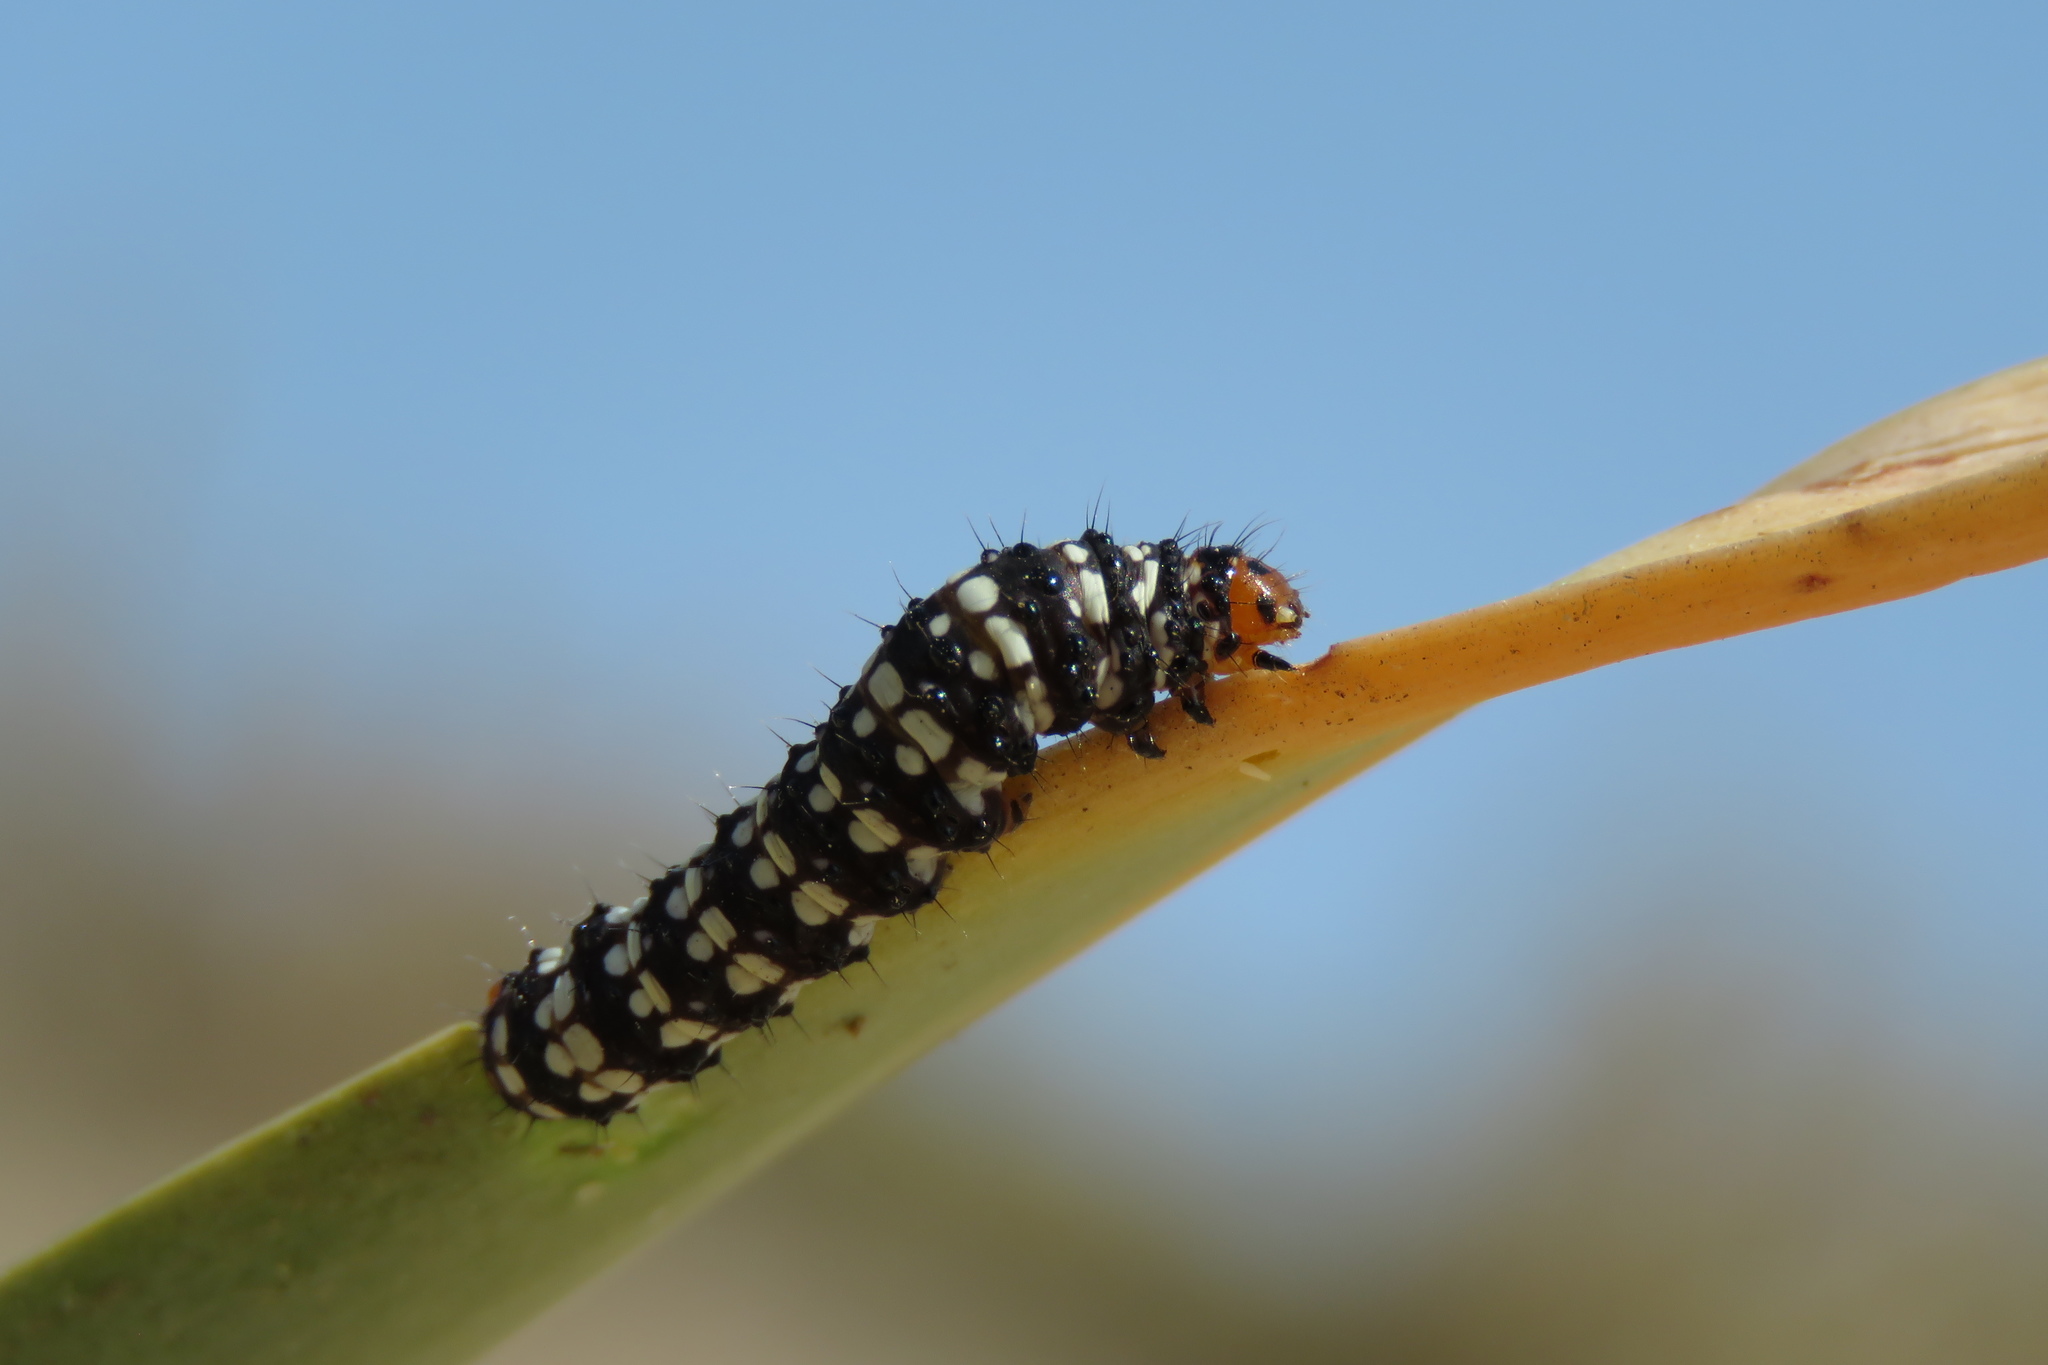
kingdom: Animalia
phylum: Arthropoda
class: Insecta
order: Lepidoptera
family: Noctuidae
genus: Brithys
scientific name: Brithys crini
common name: Kew arches
